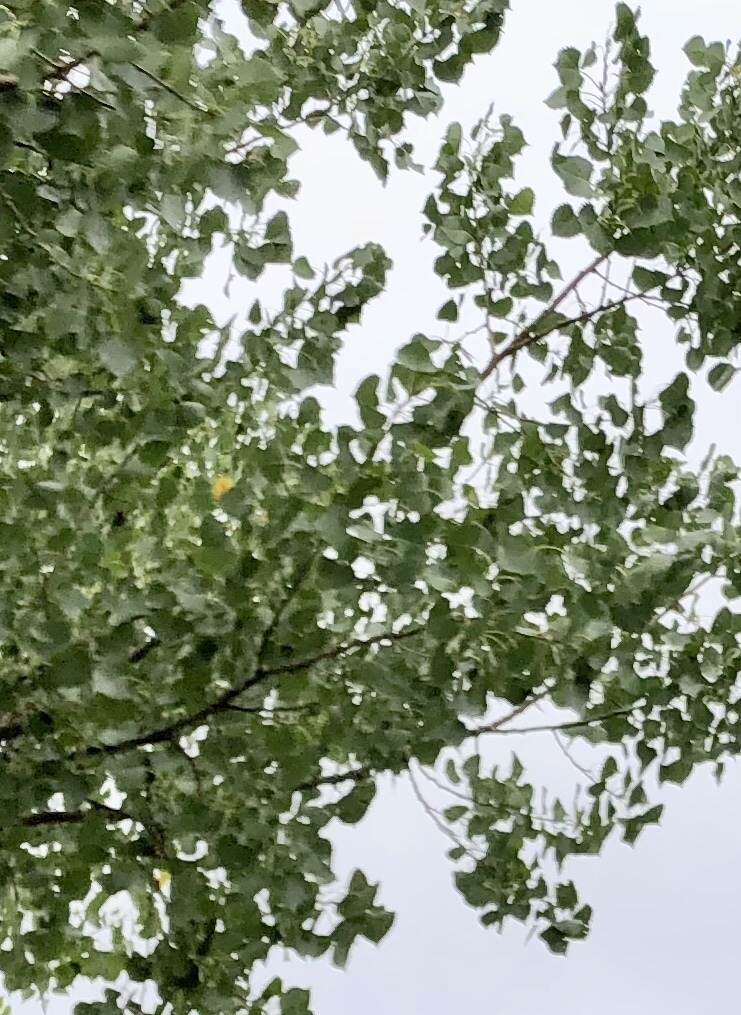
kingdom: Plantae
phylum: Tracheophyta
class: Magnoliopsida
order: Malpighiales
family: Salicaceae
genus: Populus
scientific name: Populus deltoides
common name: Eastern cottonwood
